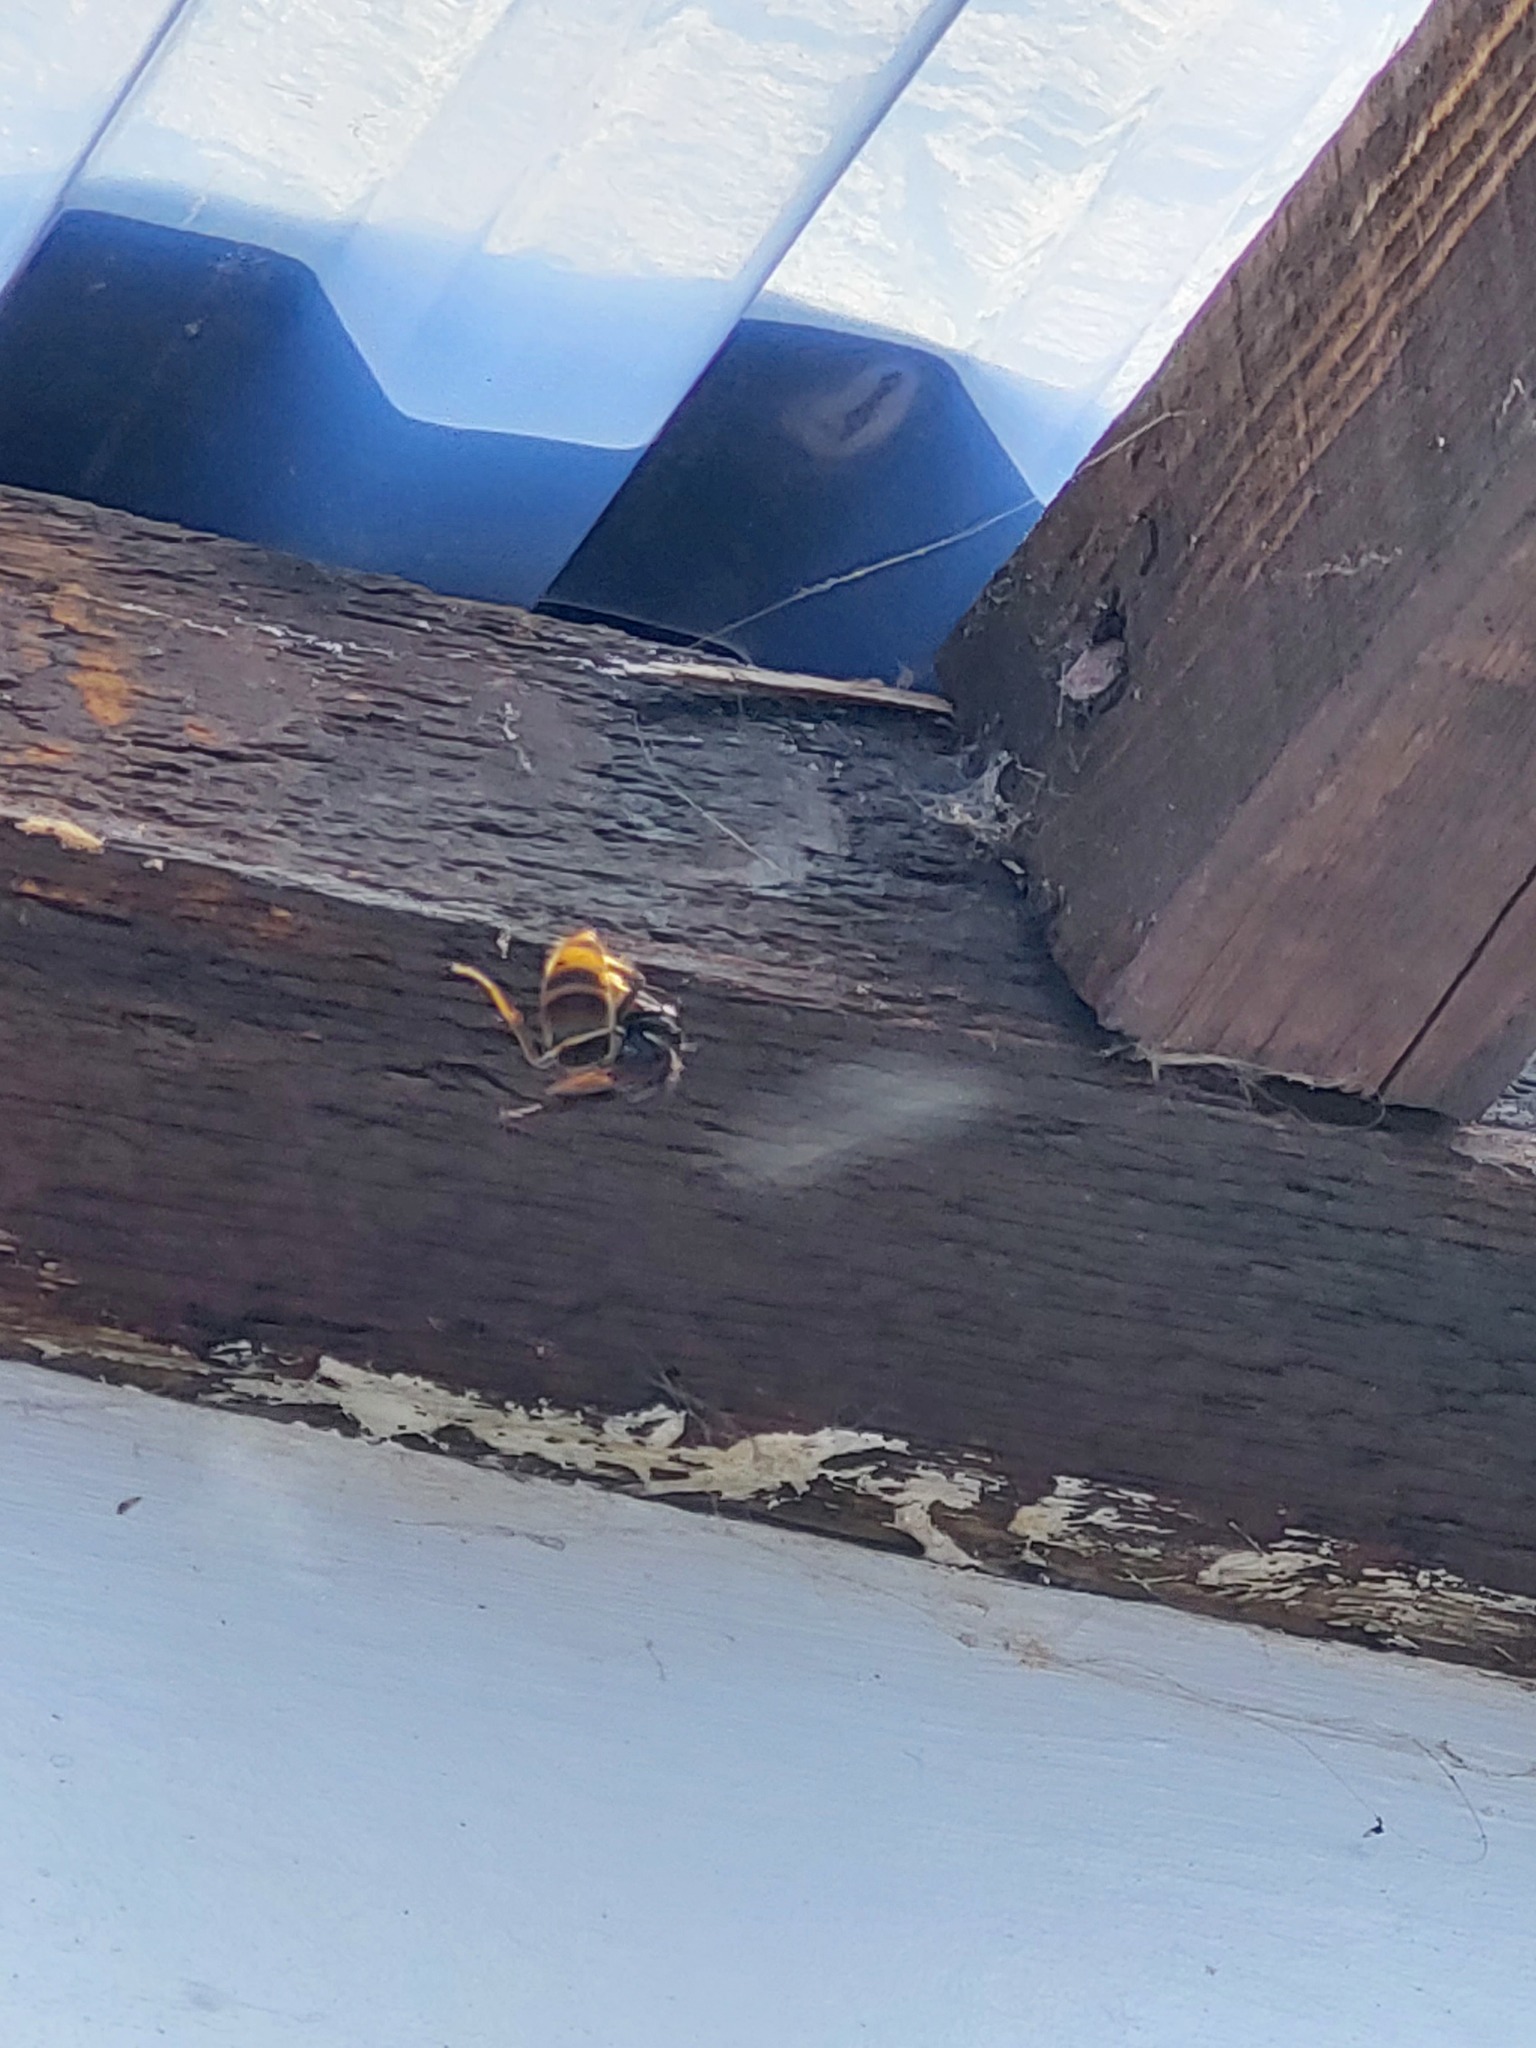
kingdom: Animalia
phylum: Arthropoda
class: Insecta
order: Hymenoptera
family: Vespidae
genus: Vespa
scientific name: Vespa velutina
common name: Asian hornet
